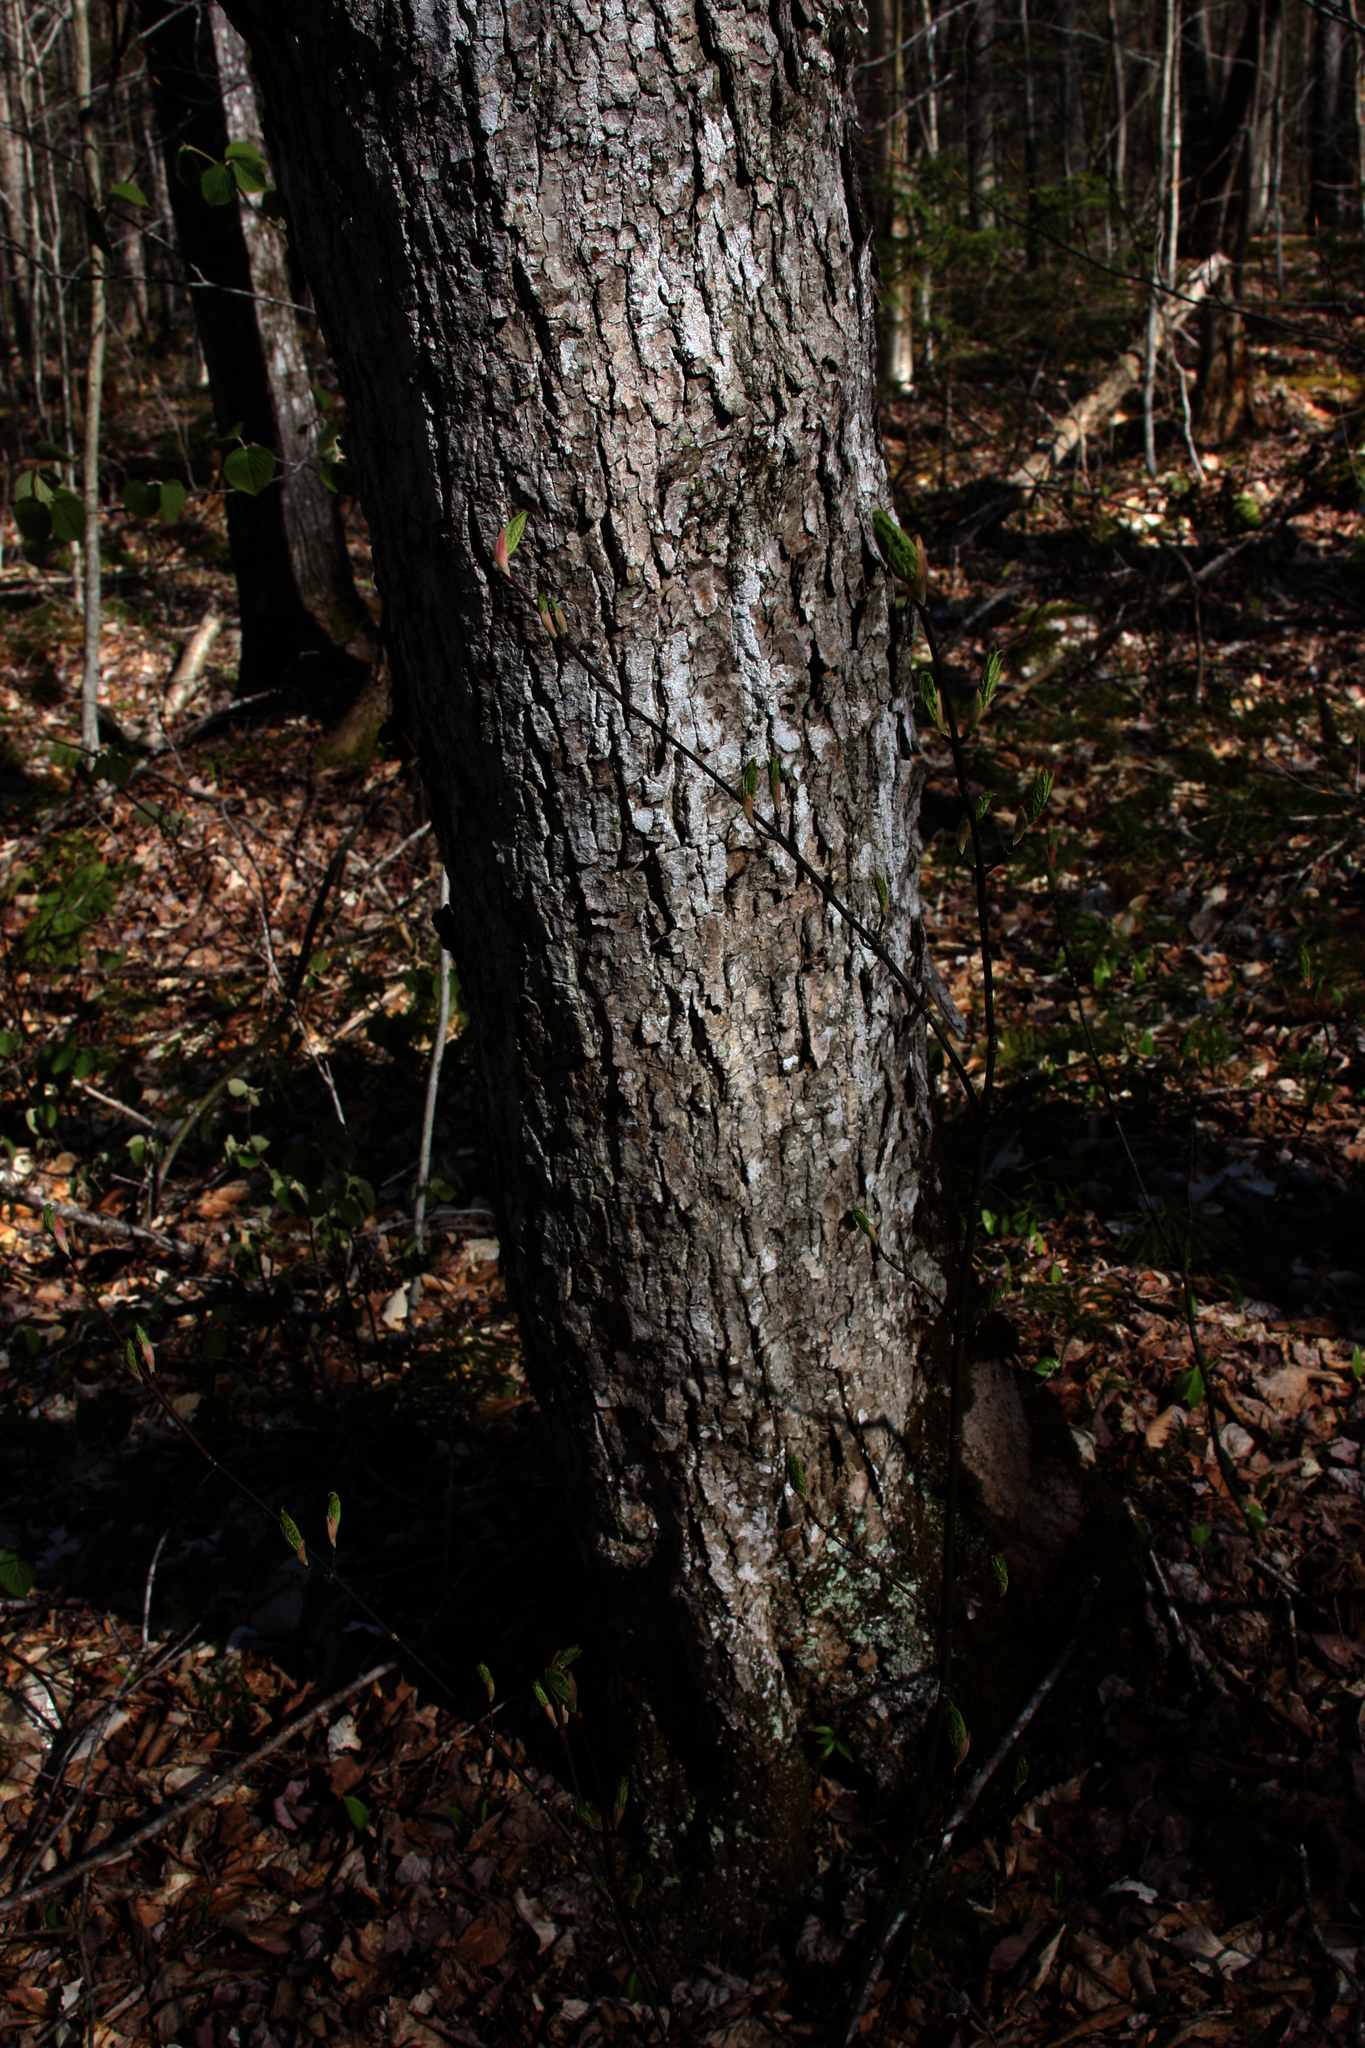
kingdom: Plantae
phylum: Tracheophyta
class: Magnoliopsida
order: Sapindales
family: Sapindaceae
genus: Acer
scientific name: Acer pensylvanicum
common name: Moosewood
